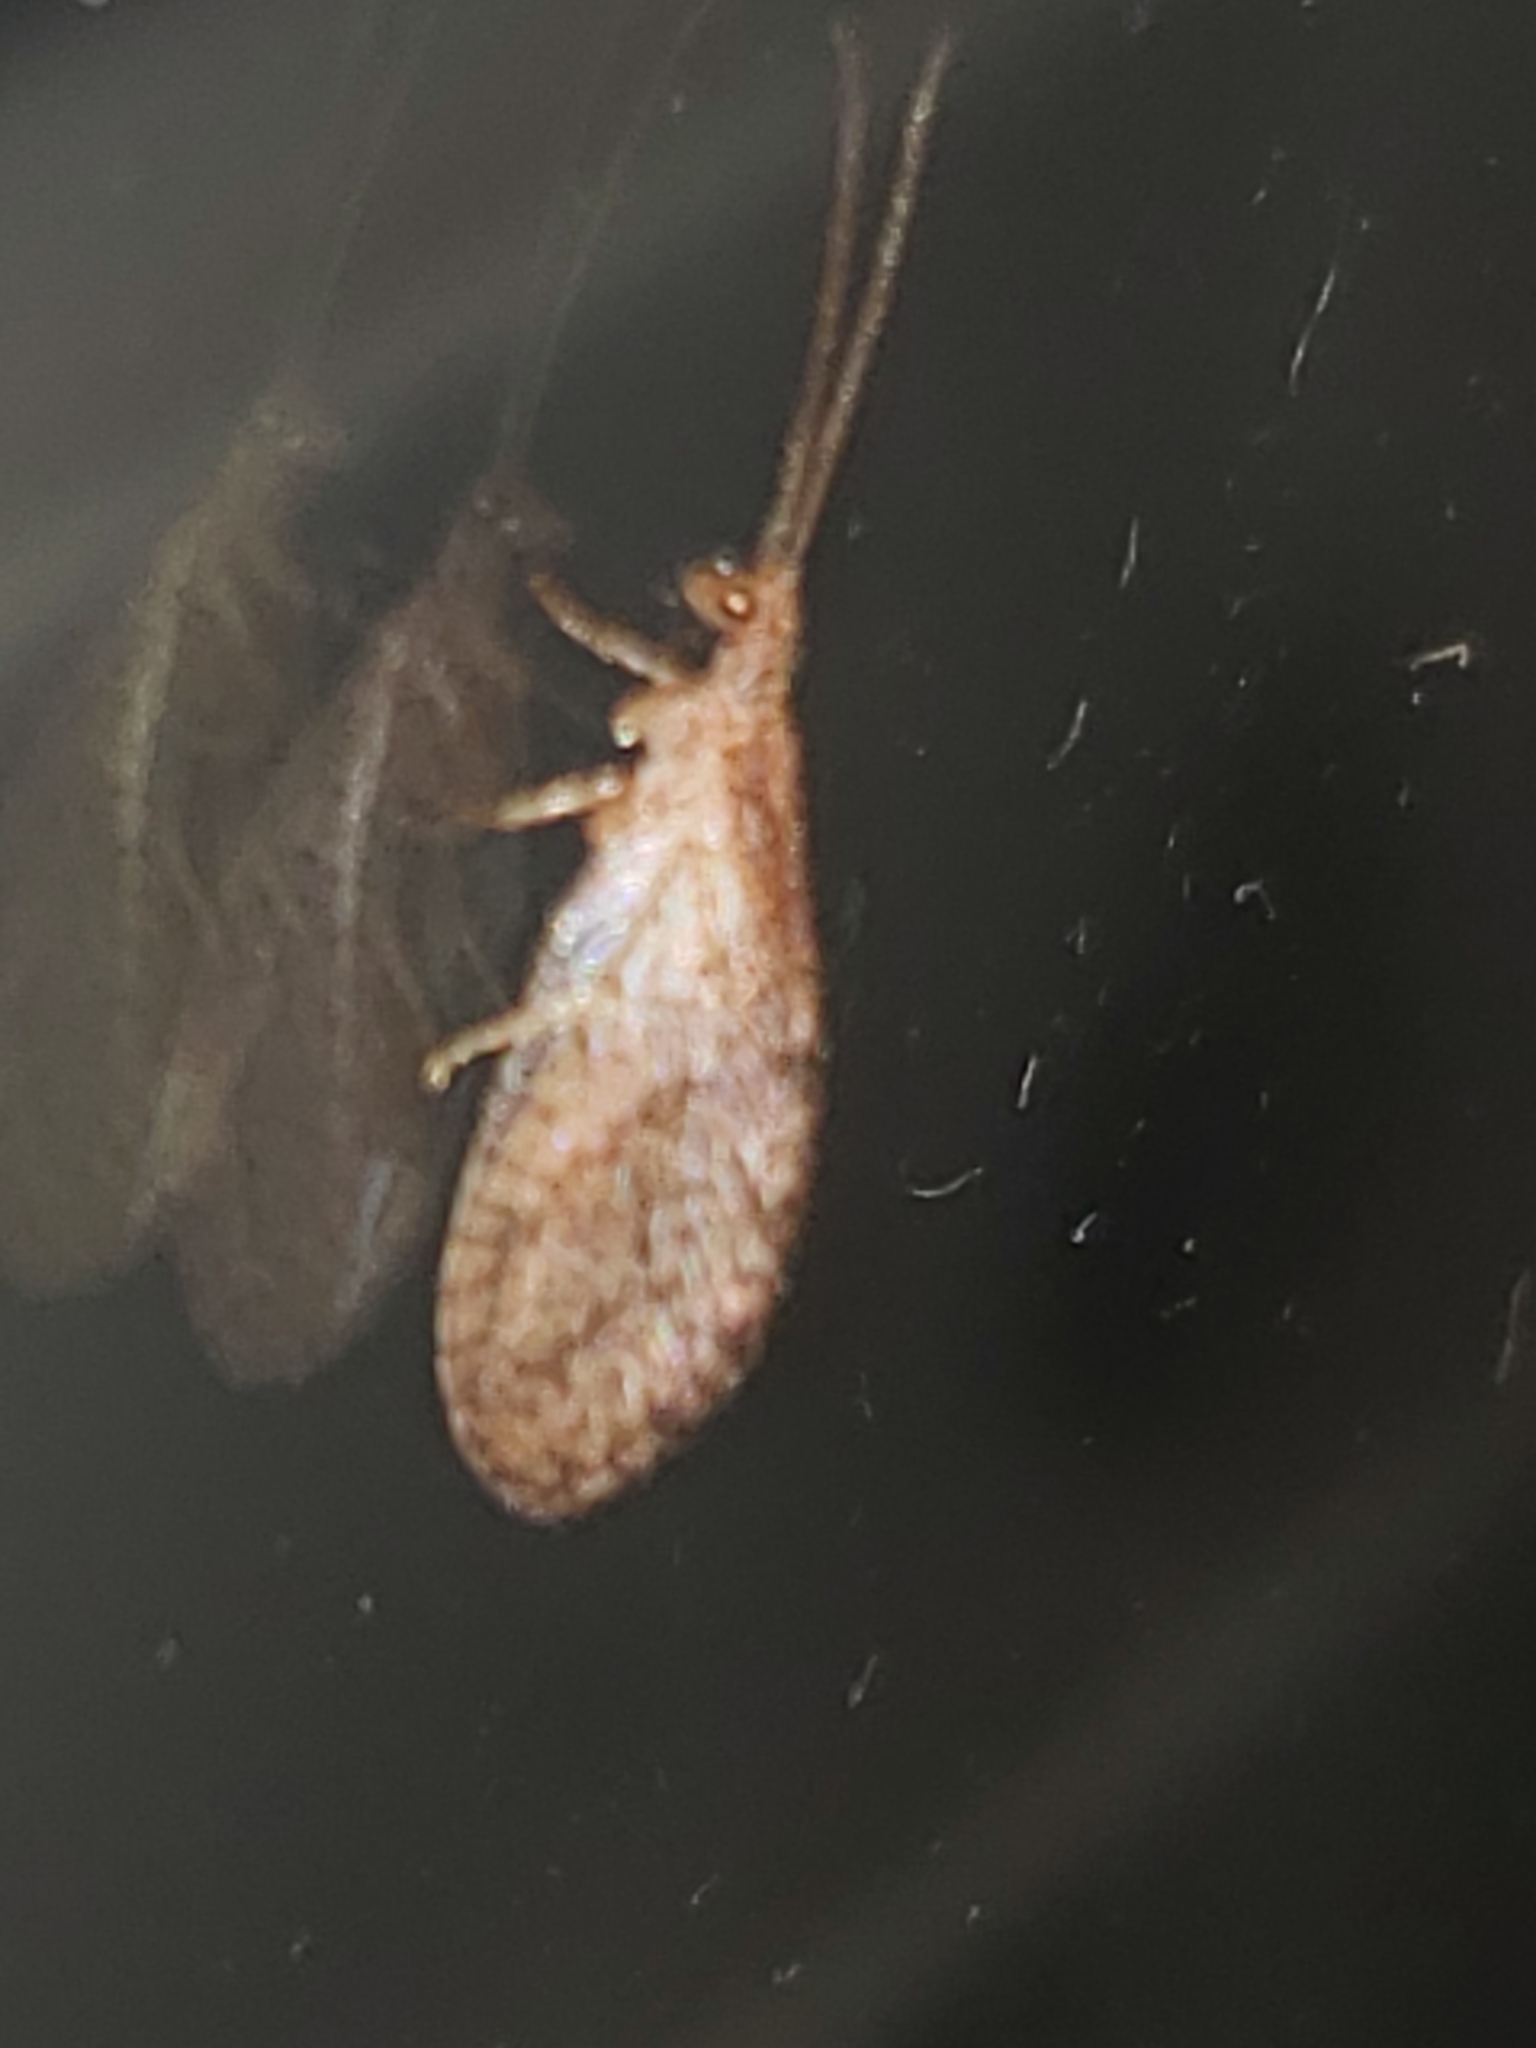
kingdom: Animalia
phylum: Arthropoda
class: Insecta
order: Neuroptera
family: Hemerobiidae
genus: Micromus
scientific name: Micromus posticus
